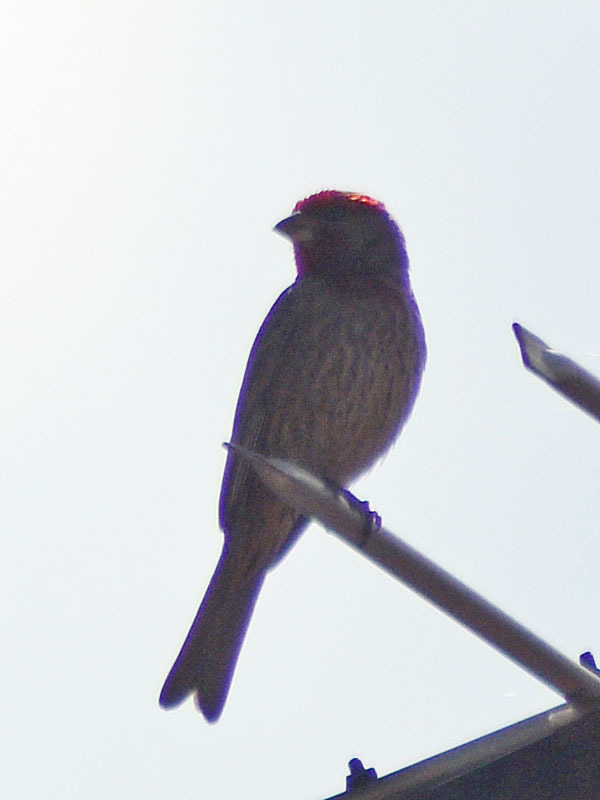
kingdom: Animalia
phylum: Chordata
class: Aves
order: Passeriformes
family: Fringillidae
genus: Haemorhous
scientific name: Haemorhous mexicanus
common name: House finch
